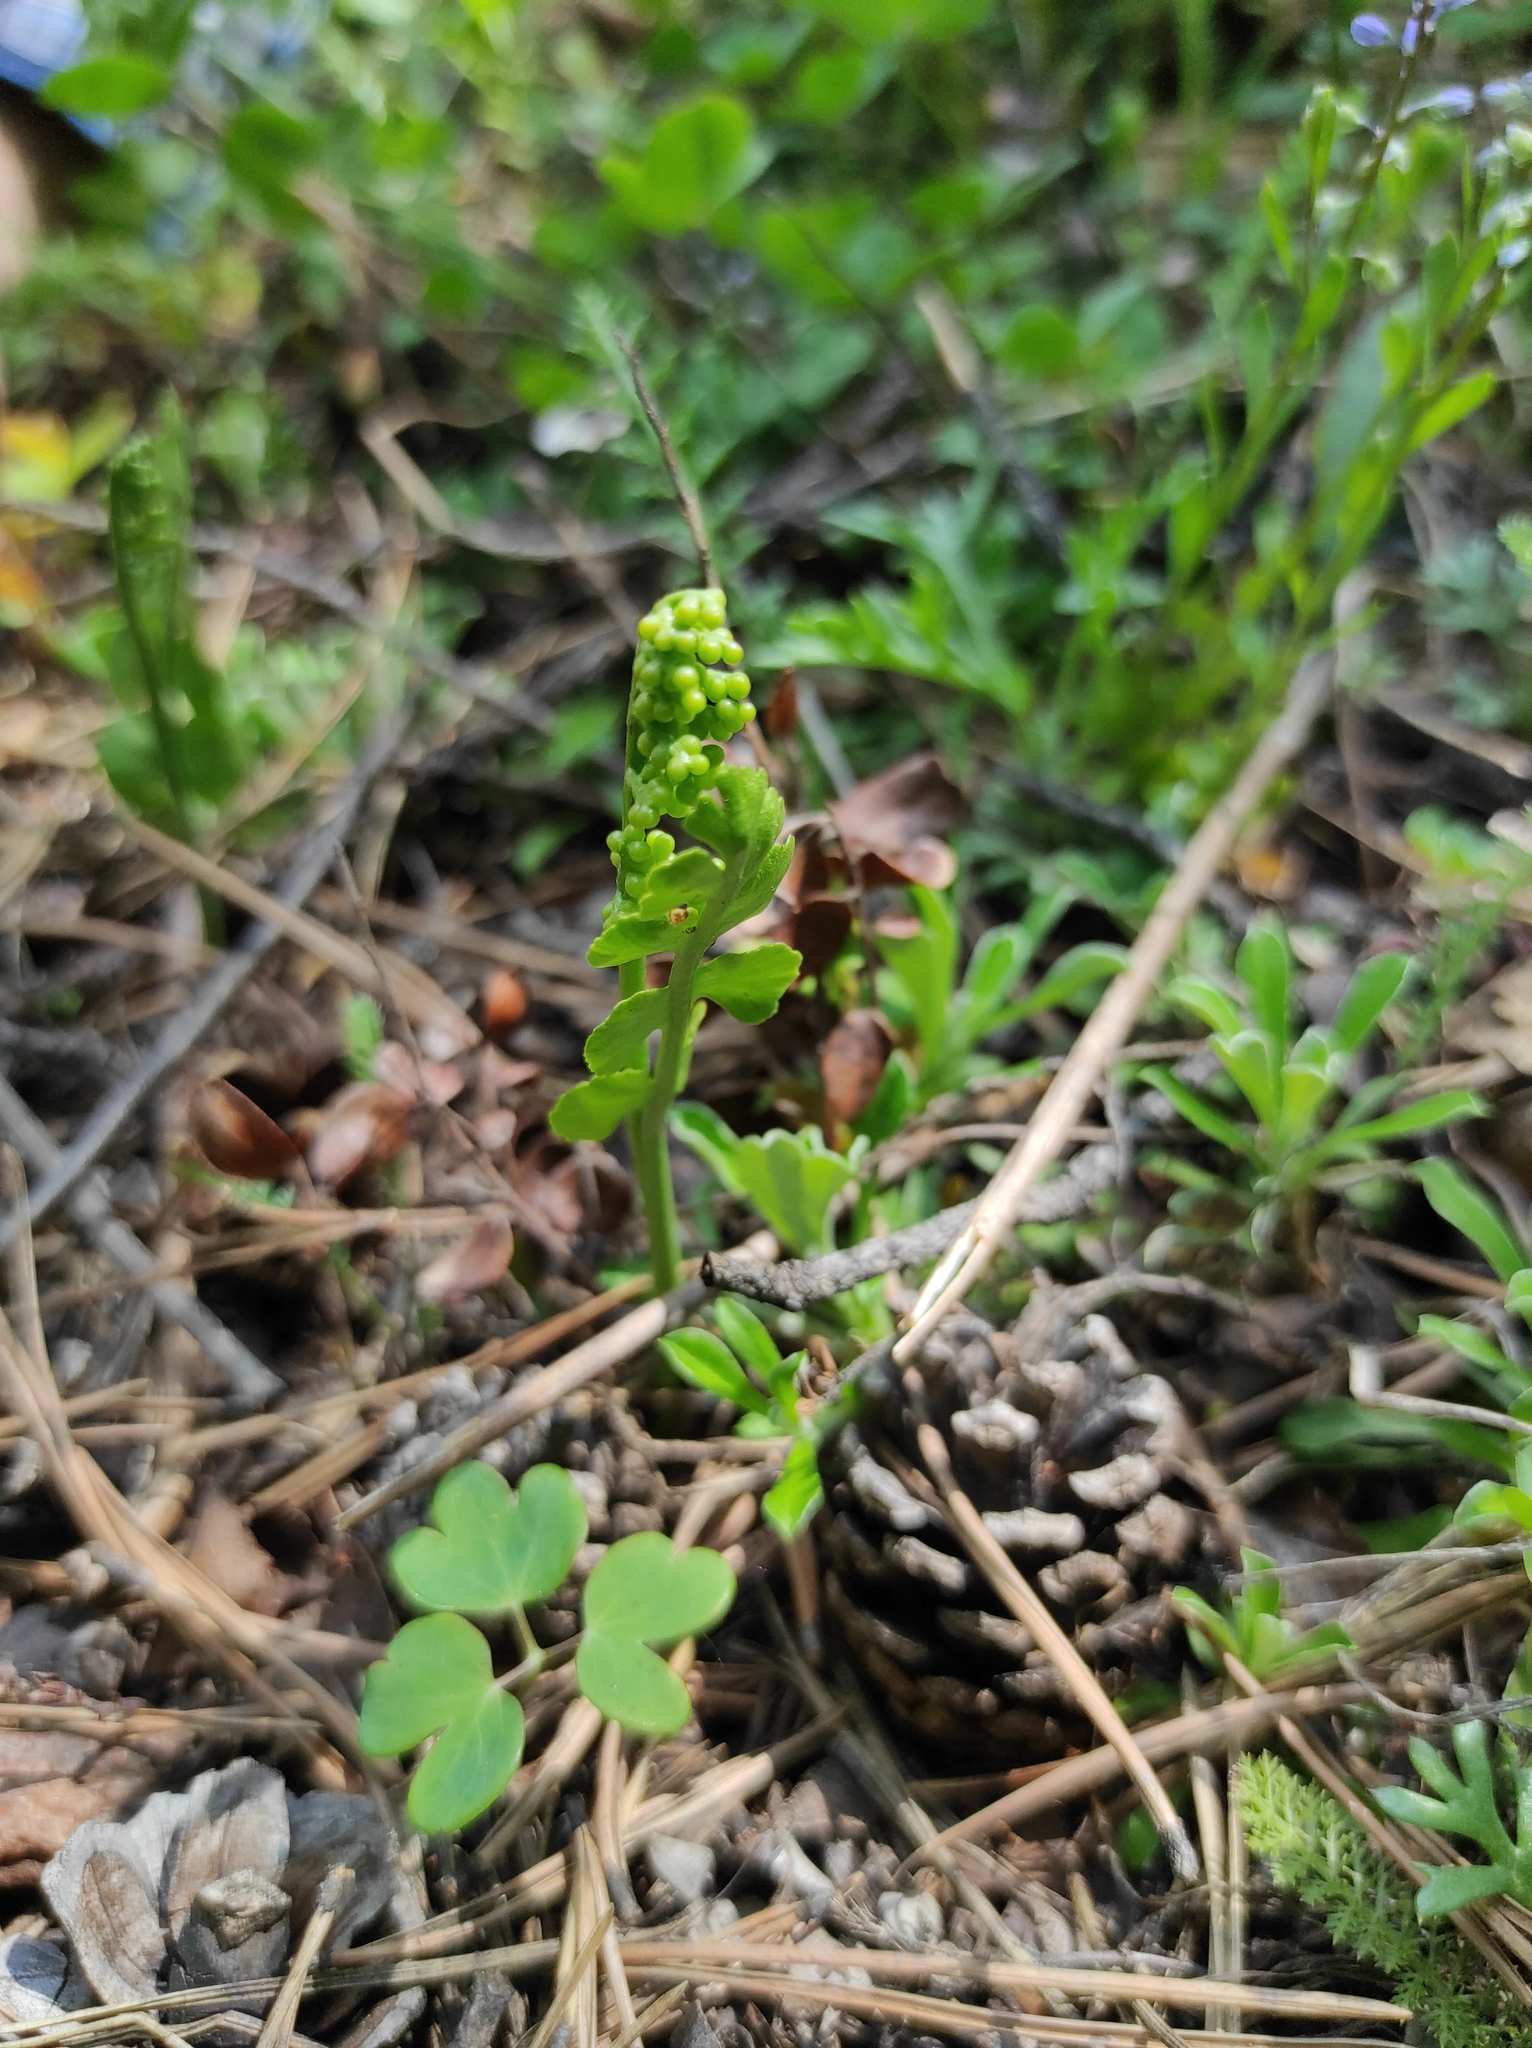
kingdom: Plantae
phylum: Tracheophyta
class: Polypodiopsida
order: Ophioglossales
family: Ophioglossaceae
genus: Botrychium
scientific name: Botrychium lunaria
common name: Moonwort
